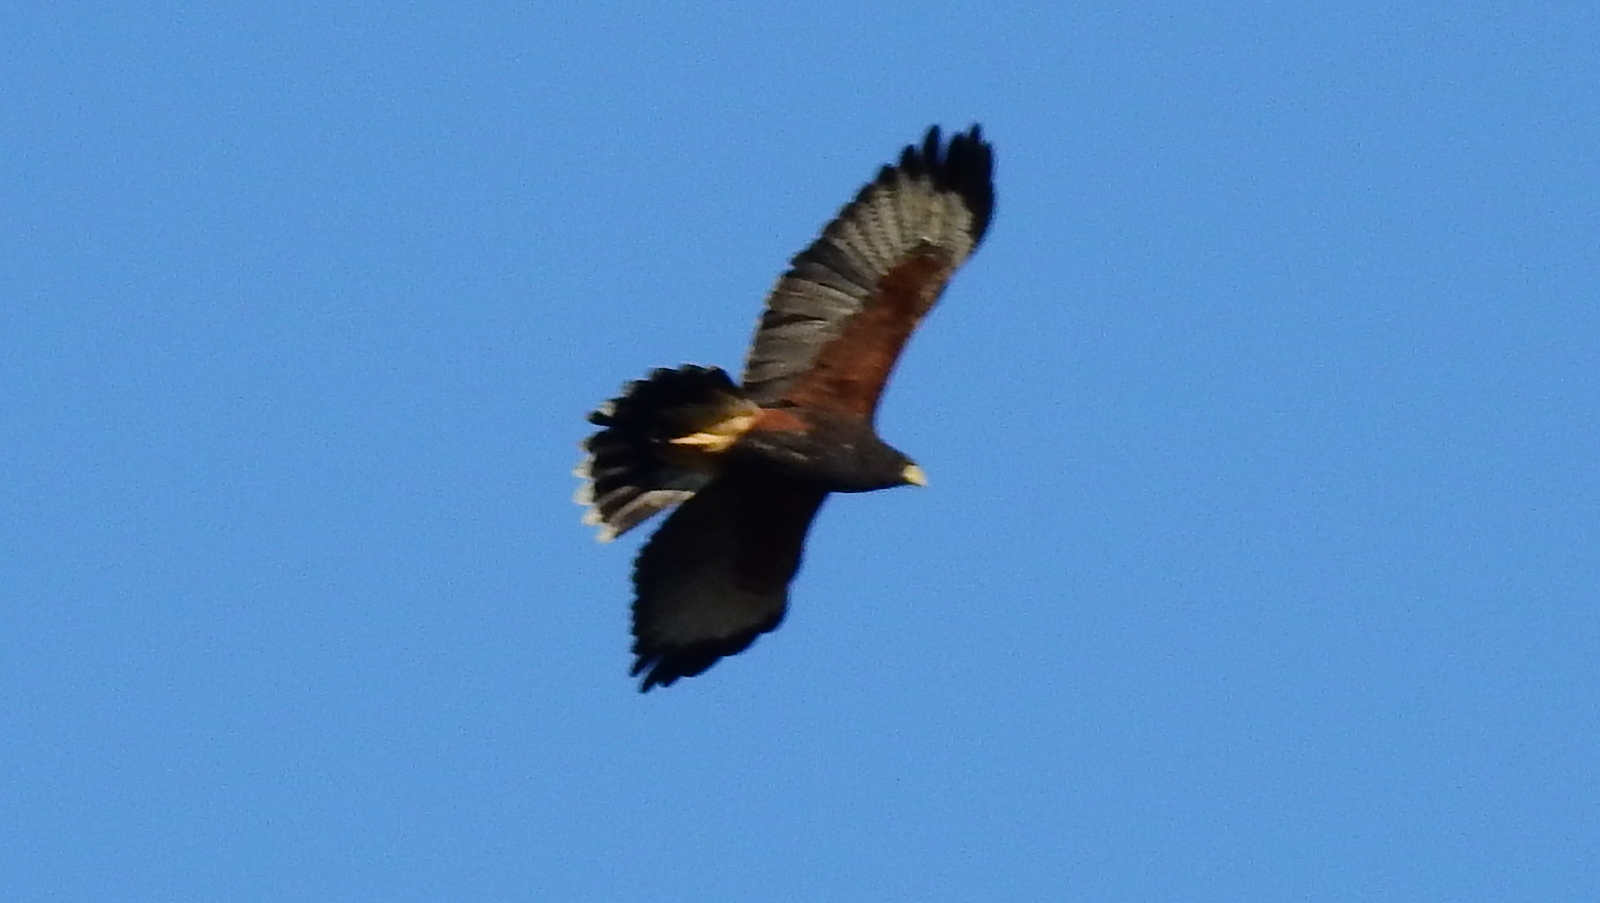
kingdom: Animalia
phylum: Chordata
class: Aves
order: Accipitriformes
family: Accipitridae
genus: Parabuteo
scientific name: Parabuteo unicinctus
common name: Harris's hawk
